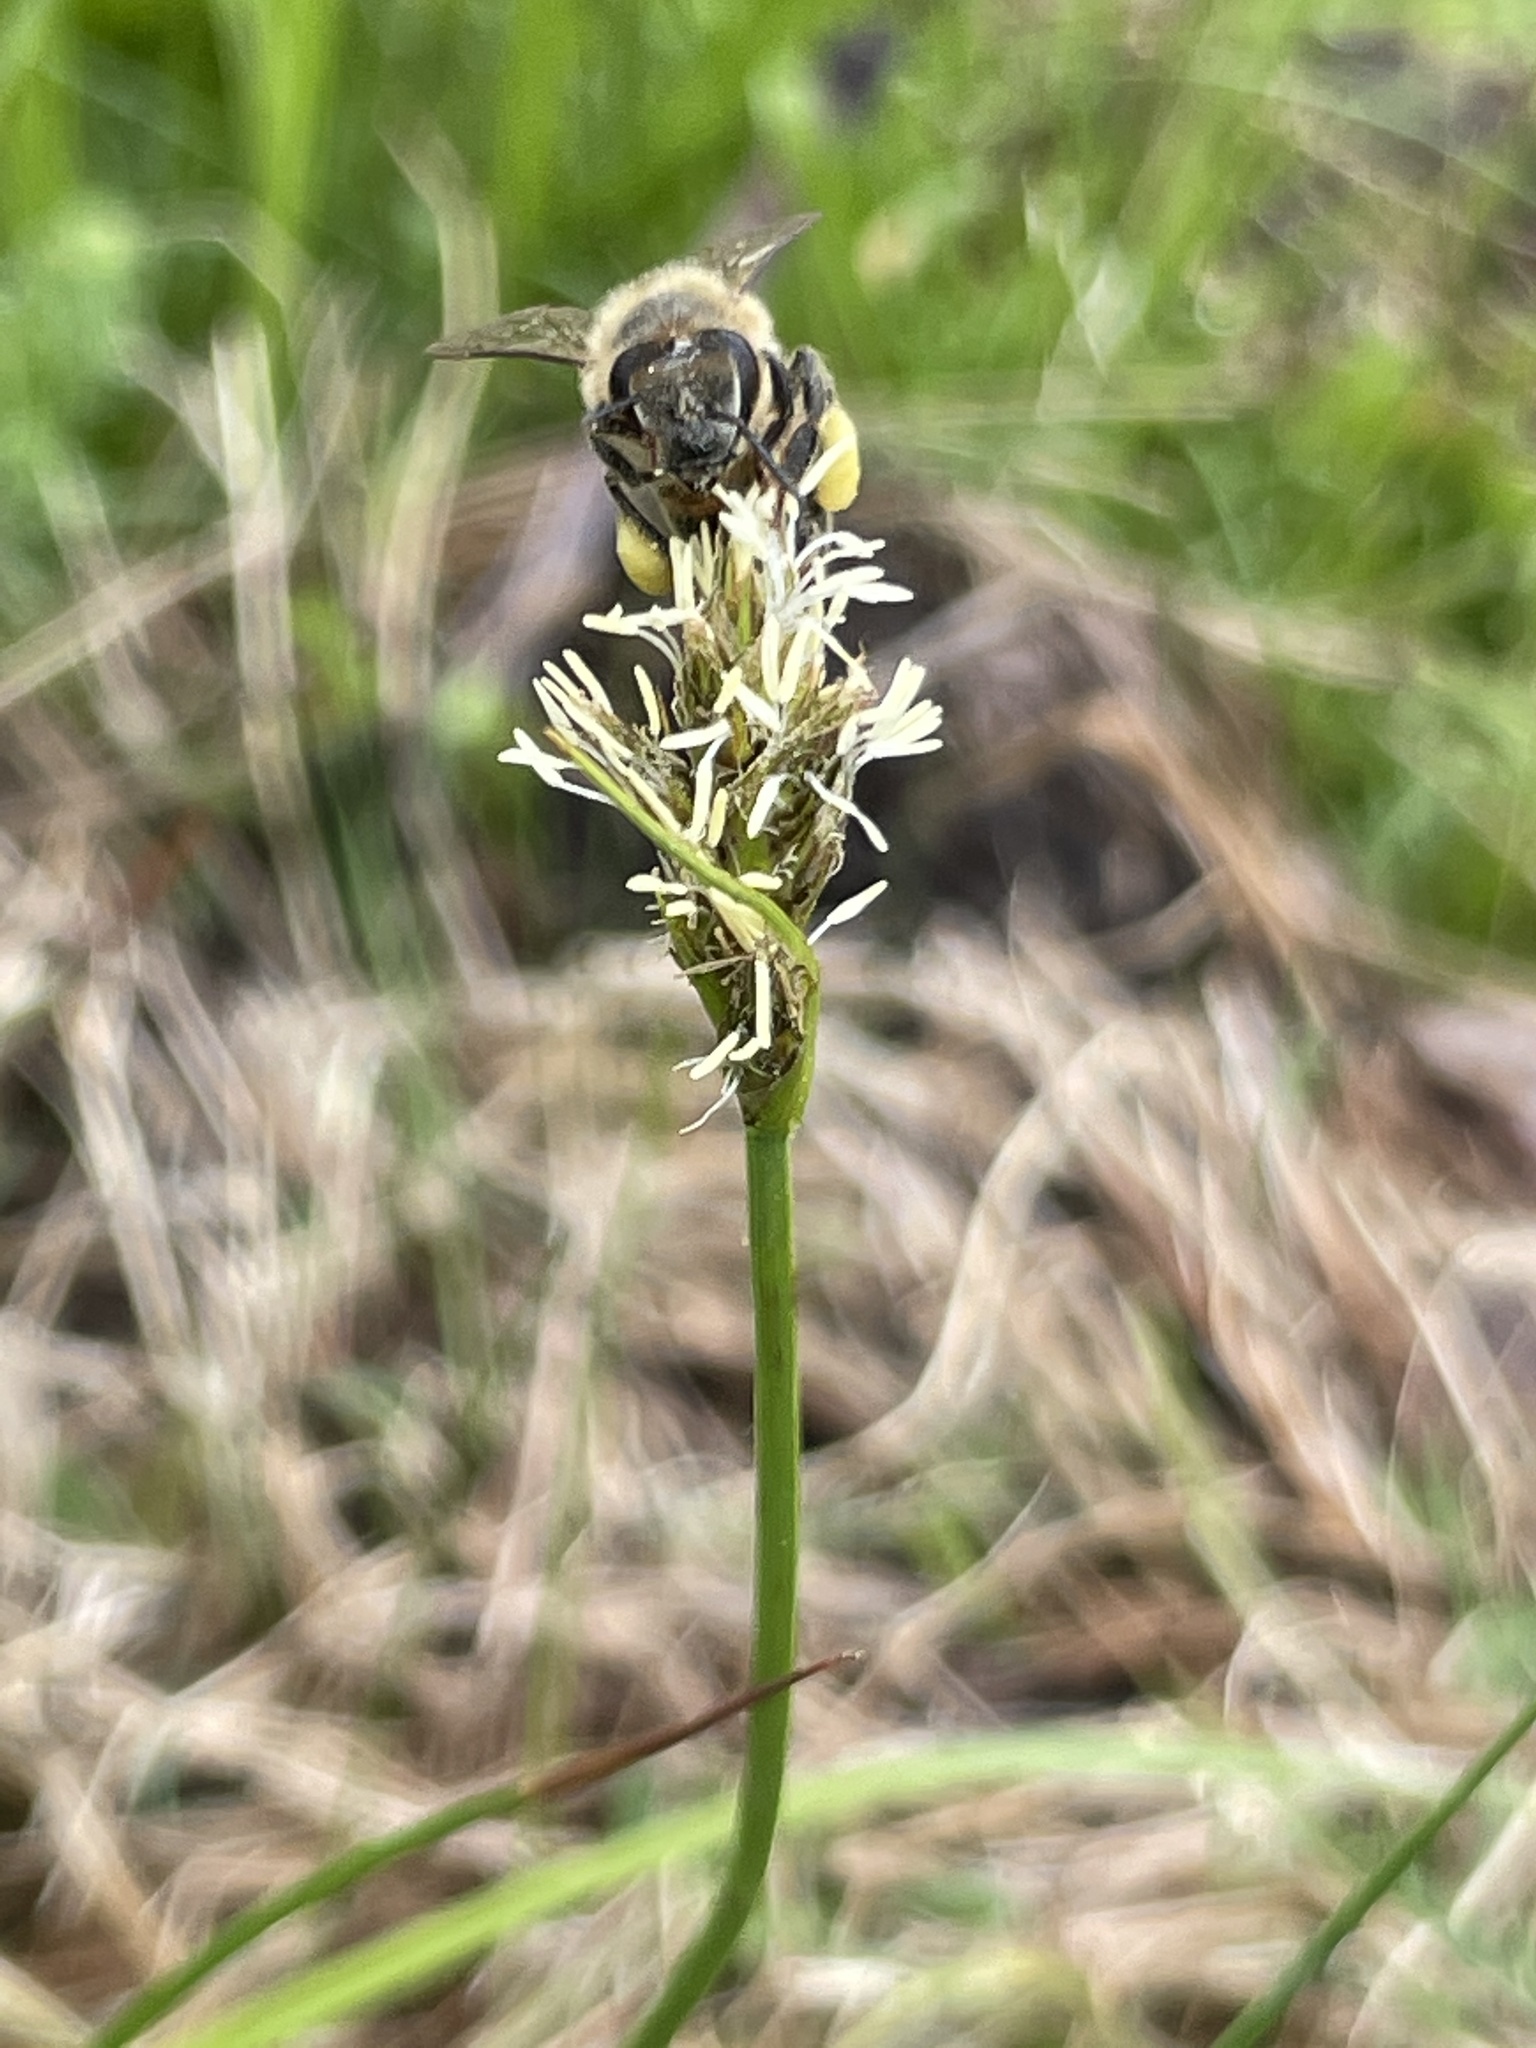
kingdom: Animalia
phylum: Arthropoda
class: Insecta
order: Hymenoptera
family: Apidae
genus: Apis
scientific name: Apis mellifera
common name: Honey bee
